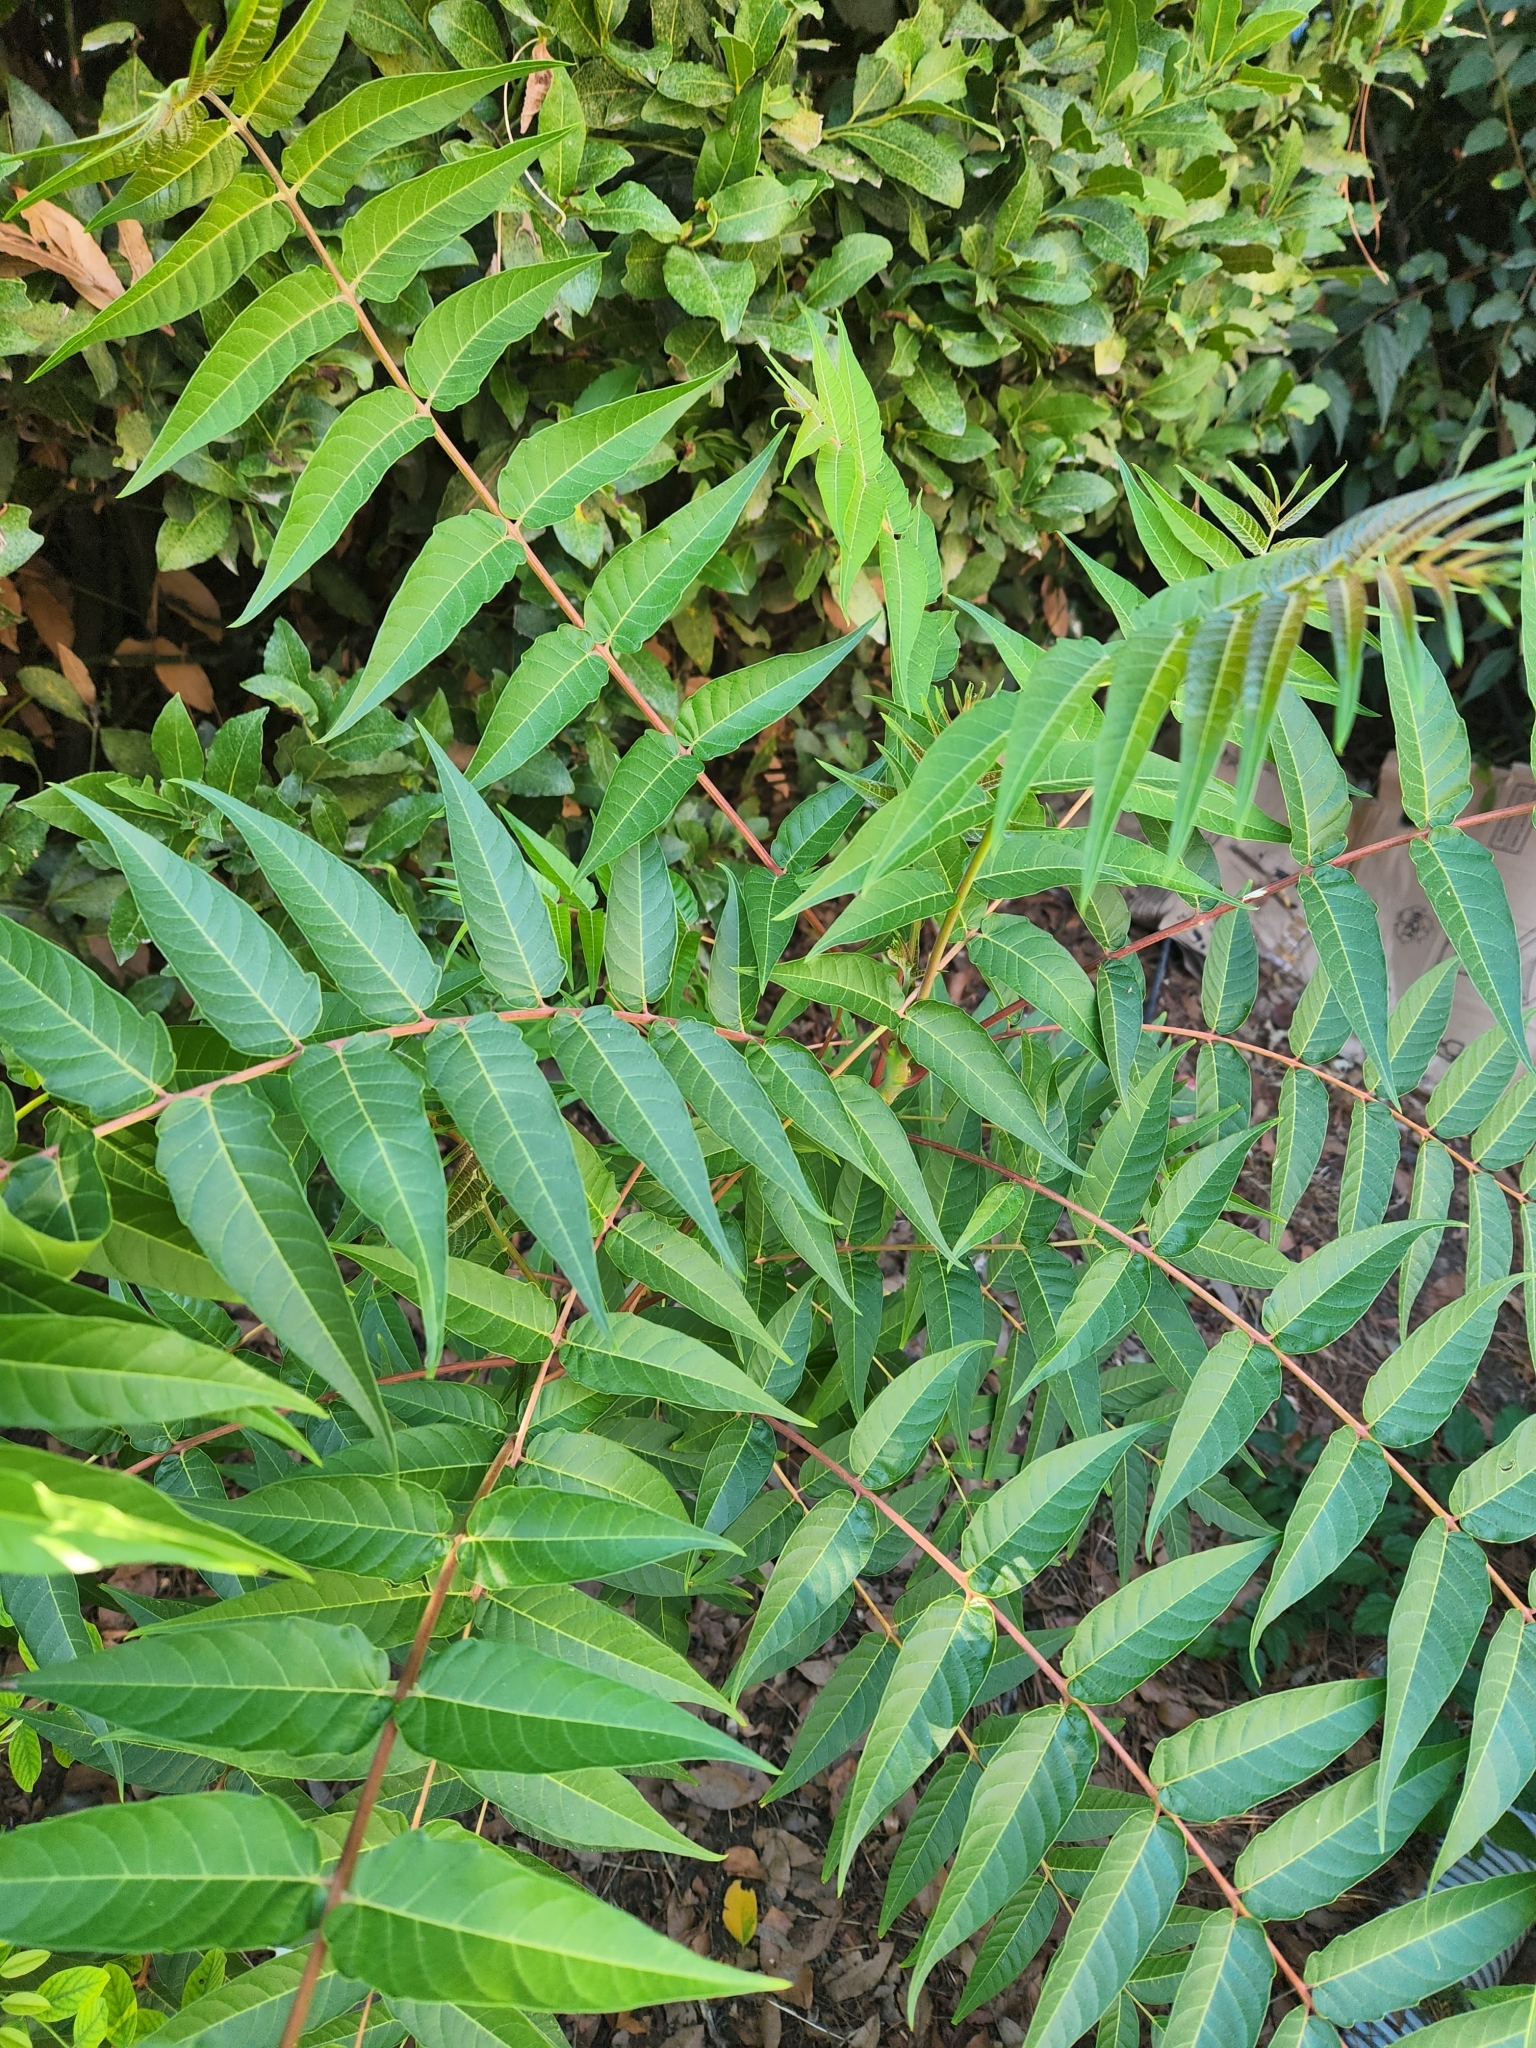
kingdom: Plantae
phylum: Tracheophyta
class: Magnoliopsida
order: Sapindales
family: Simaroubaceae
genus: Ailanthus
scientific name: Ailanthus altissima
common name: Tree-of-heaven
